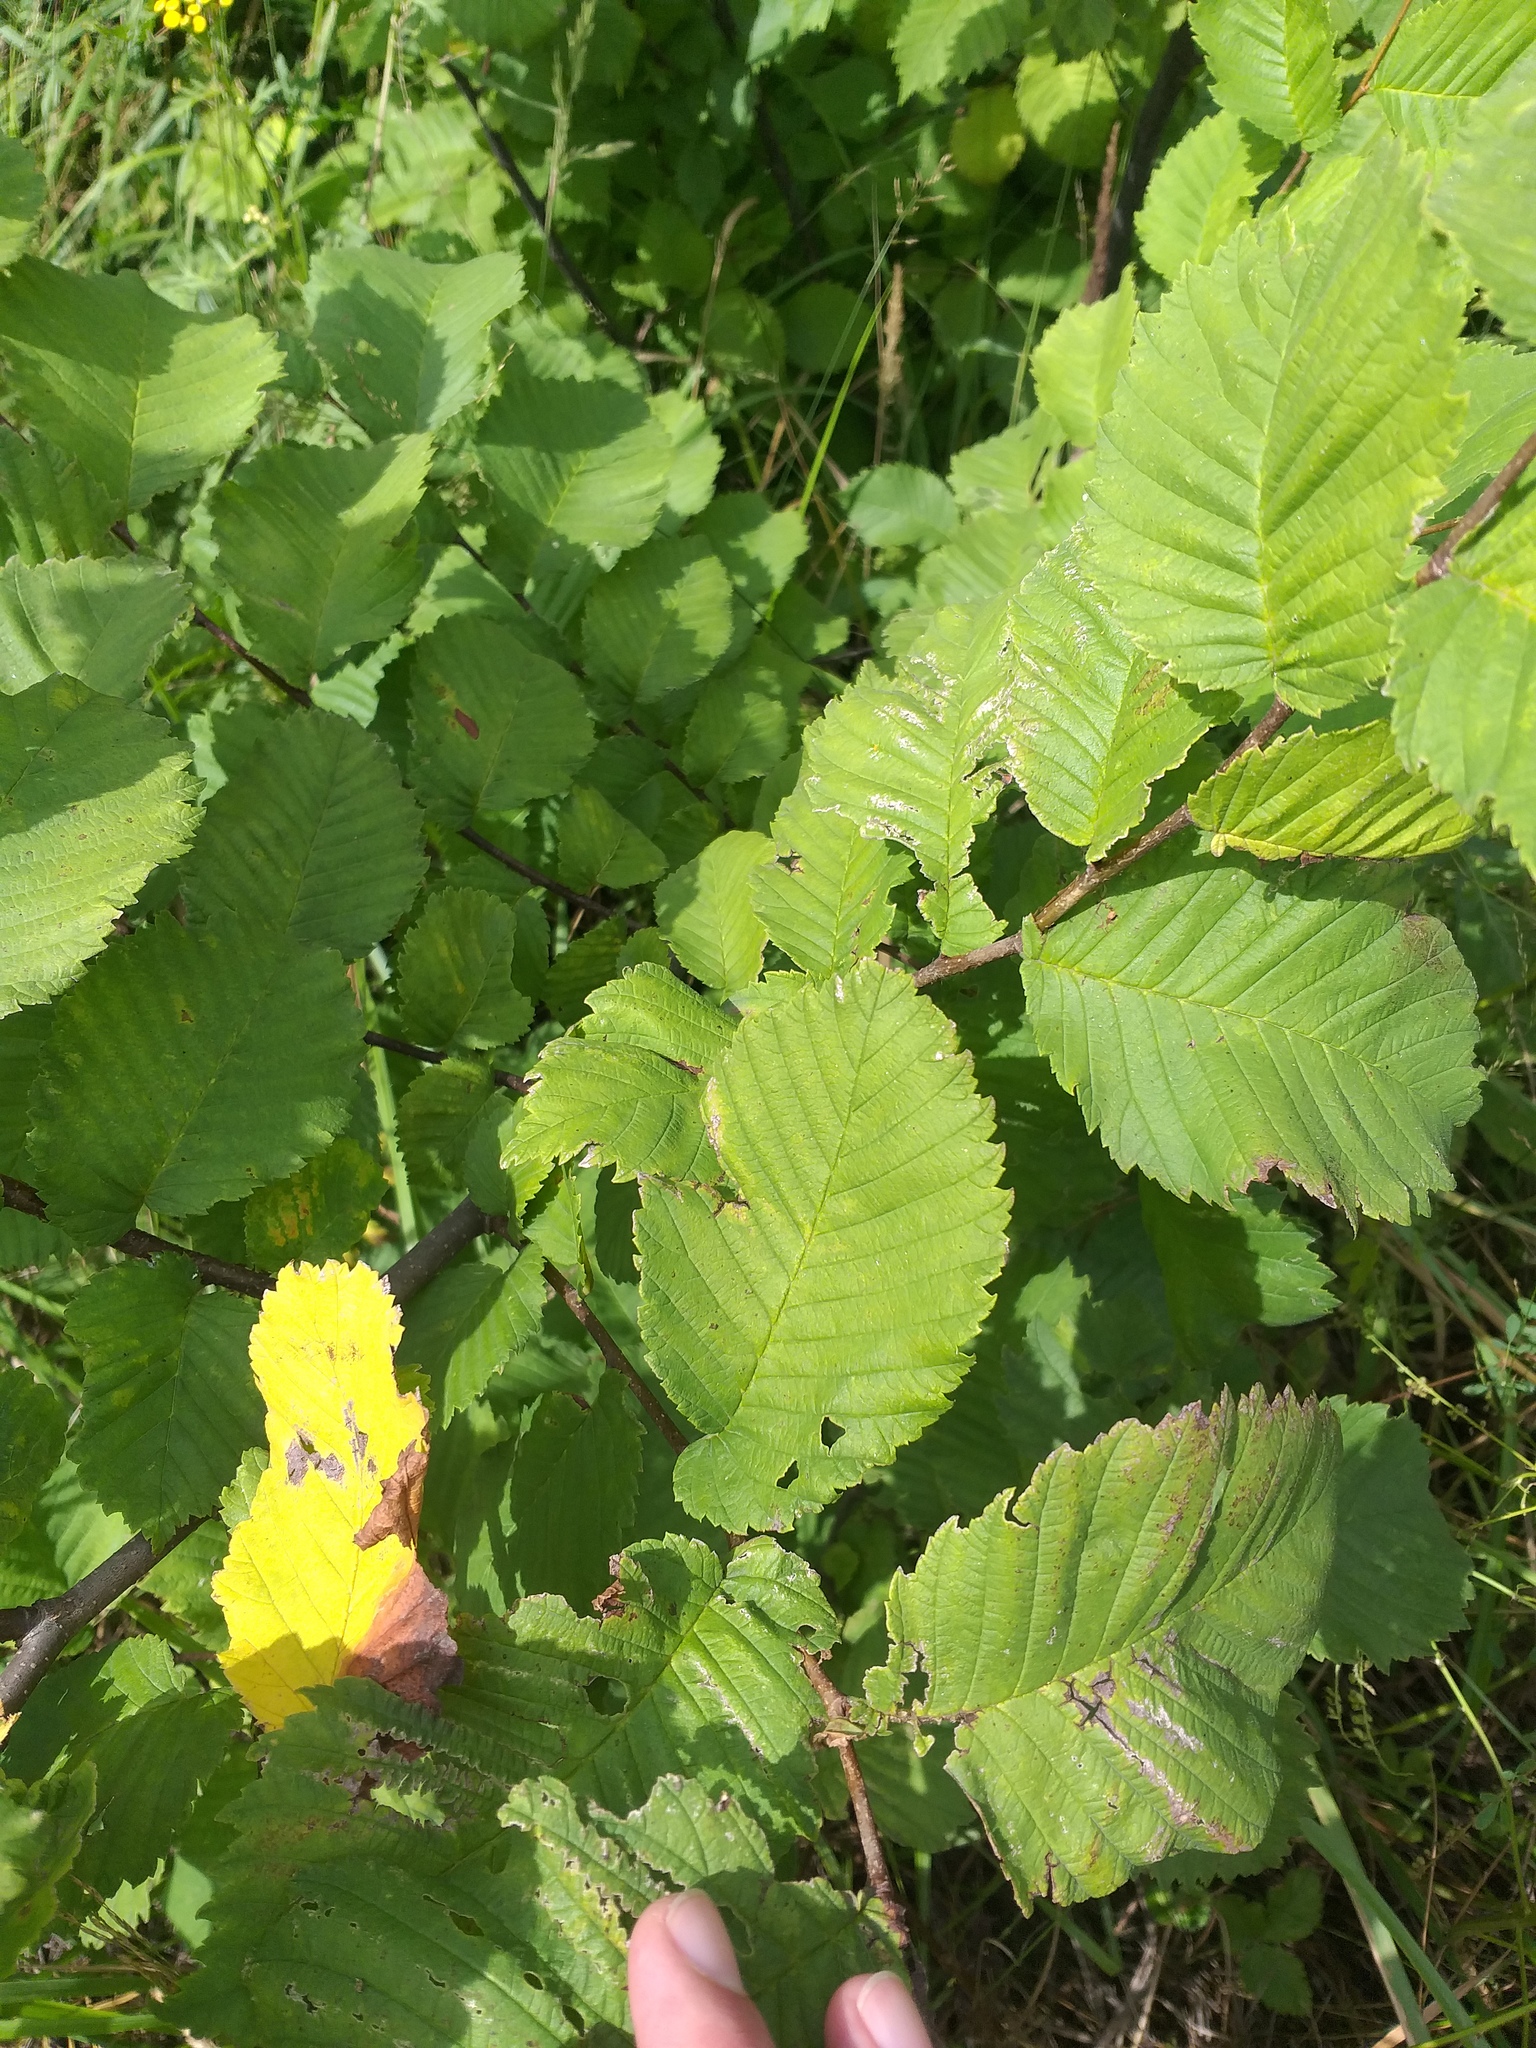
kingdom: Plantae
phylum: Tracheophyta
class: Magnoliopsida
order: Rosales
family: Ulmaceae
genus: Ulmus
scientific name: Ulmus laevis
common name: European white-elm
